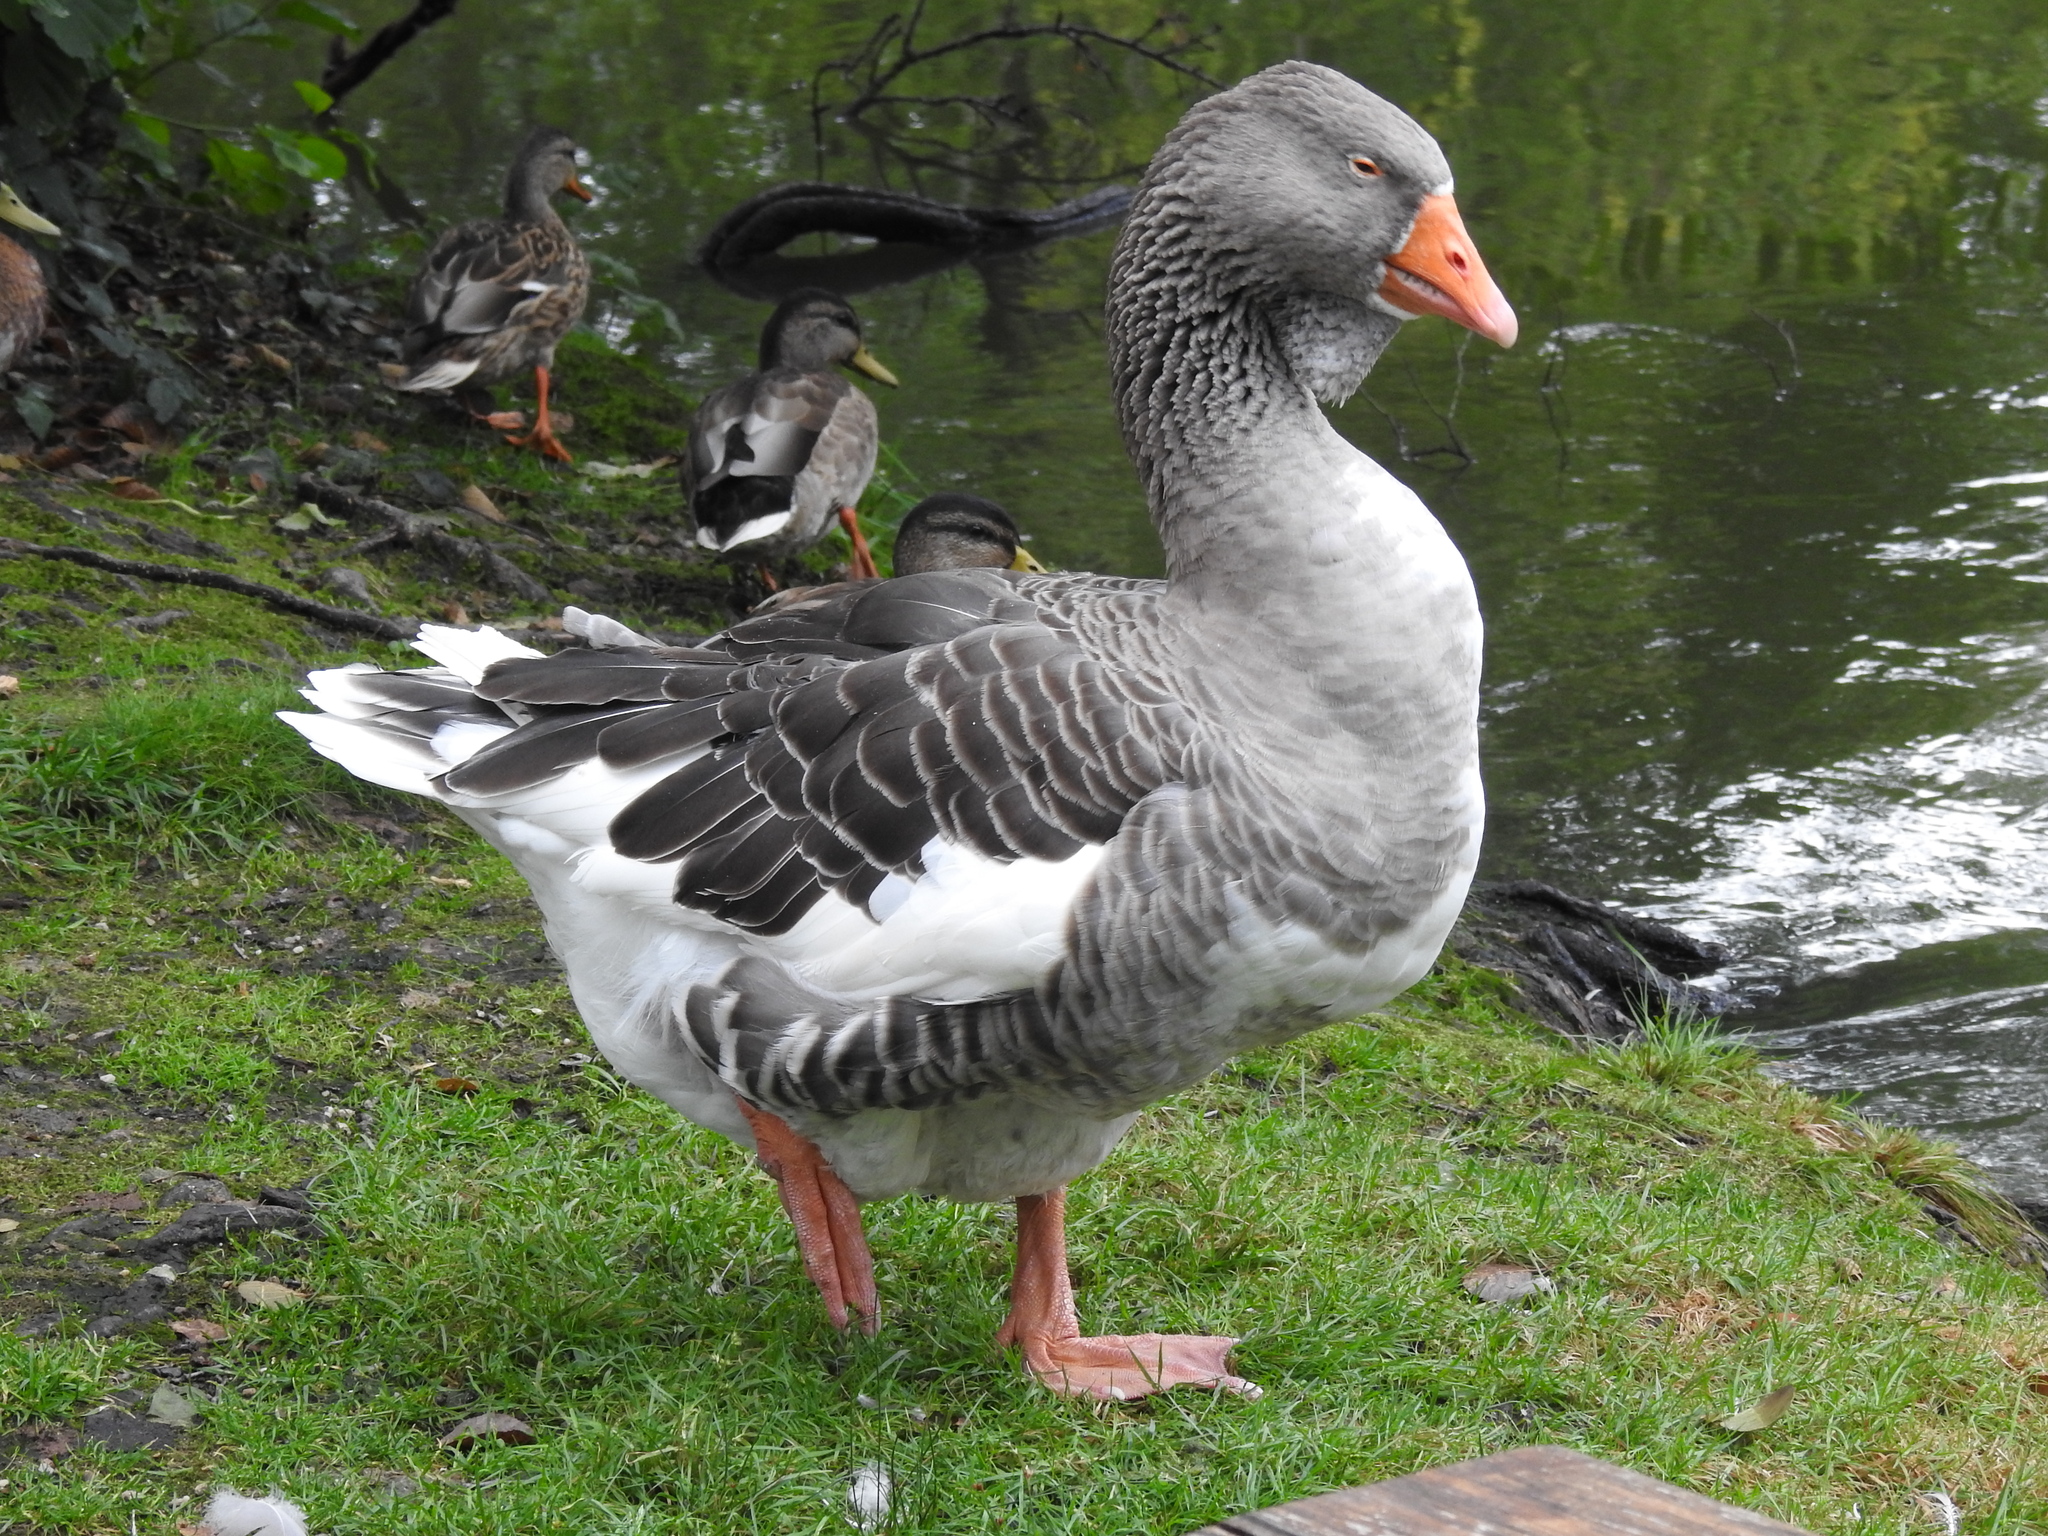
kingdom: Animalia
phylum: Chordata
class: Aves
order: Anseriformes
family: Anatidae
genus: Anser
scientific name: Anser anser
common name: Greylag goose
